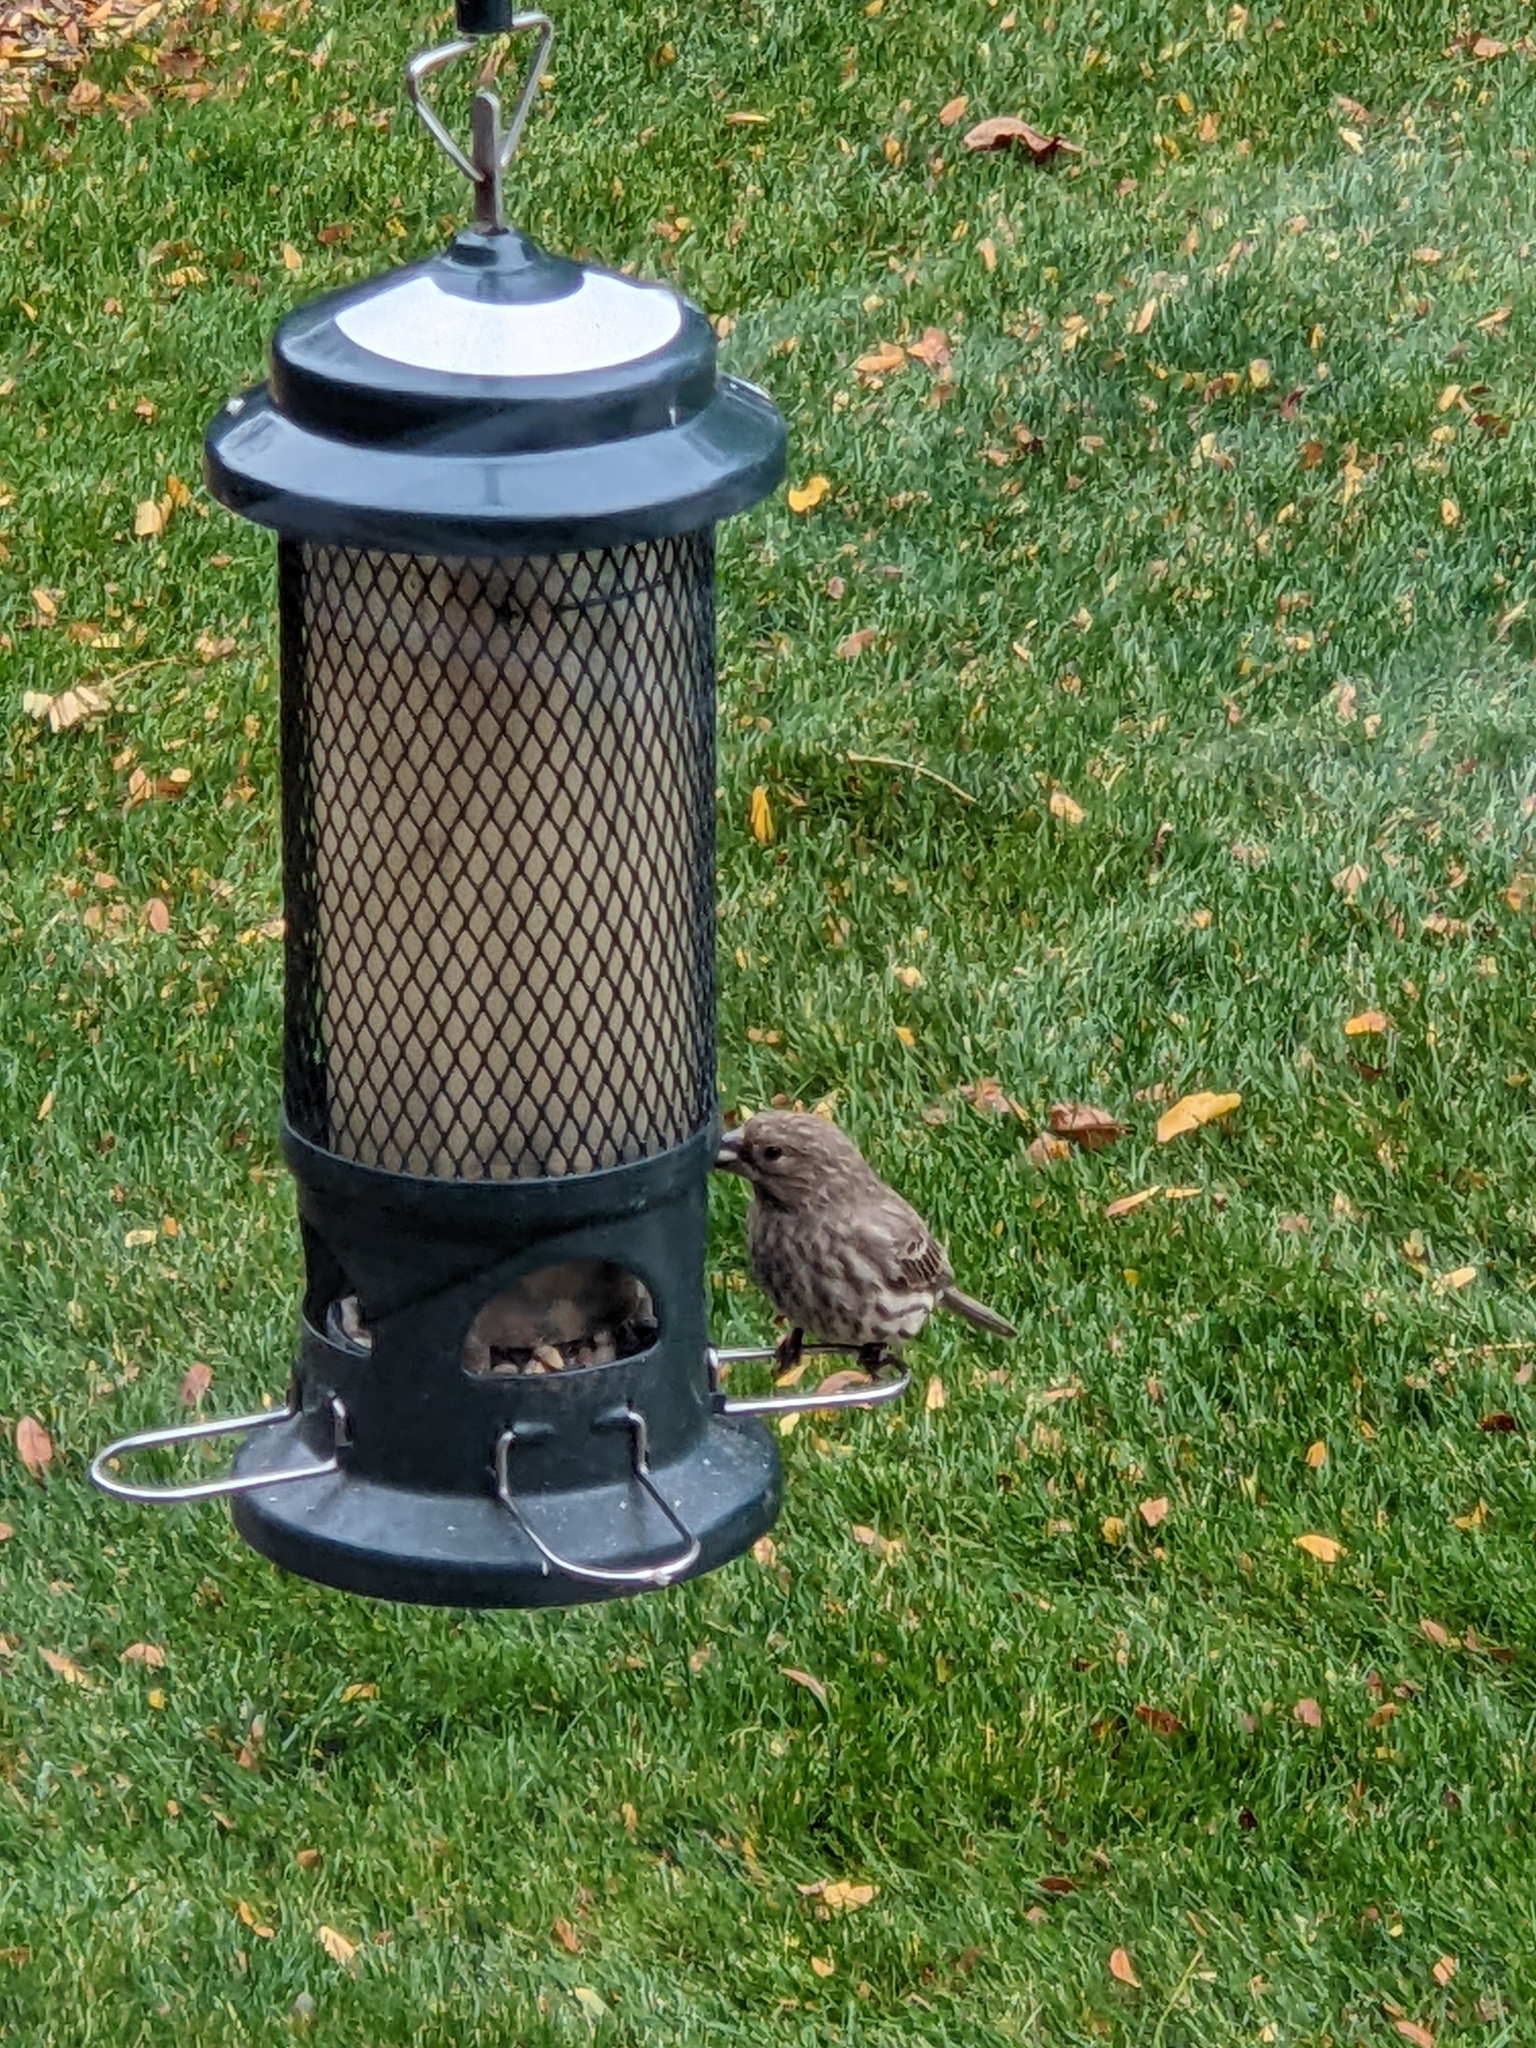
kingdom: Animalia
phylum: Chordata
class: Aves
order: Passeriformes
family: Fringillidae
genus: Haemorhous
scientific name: Haemorhous mexicanus
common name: House finch
